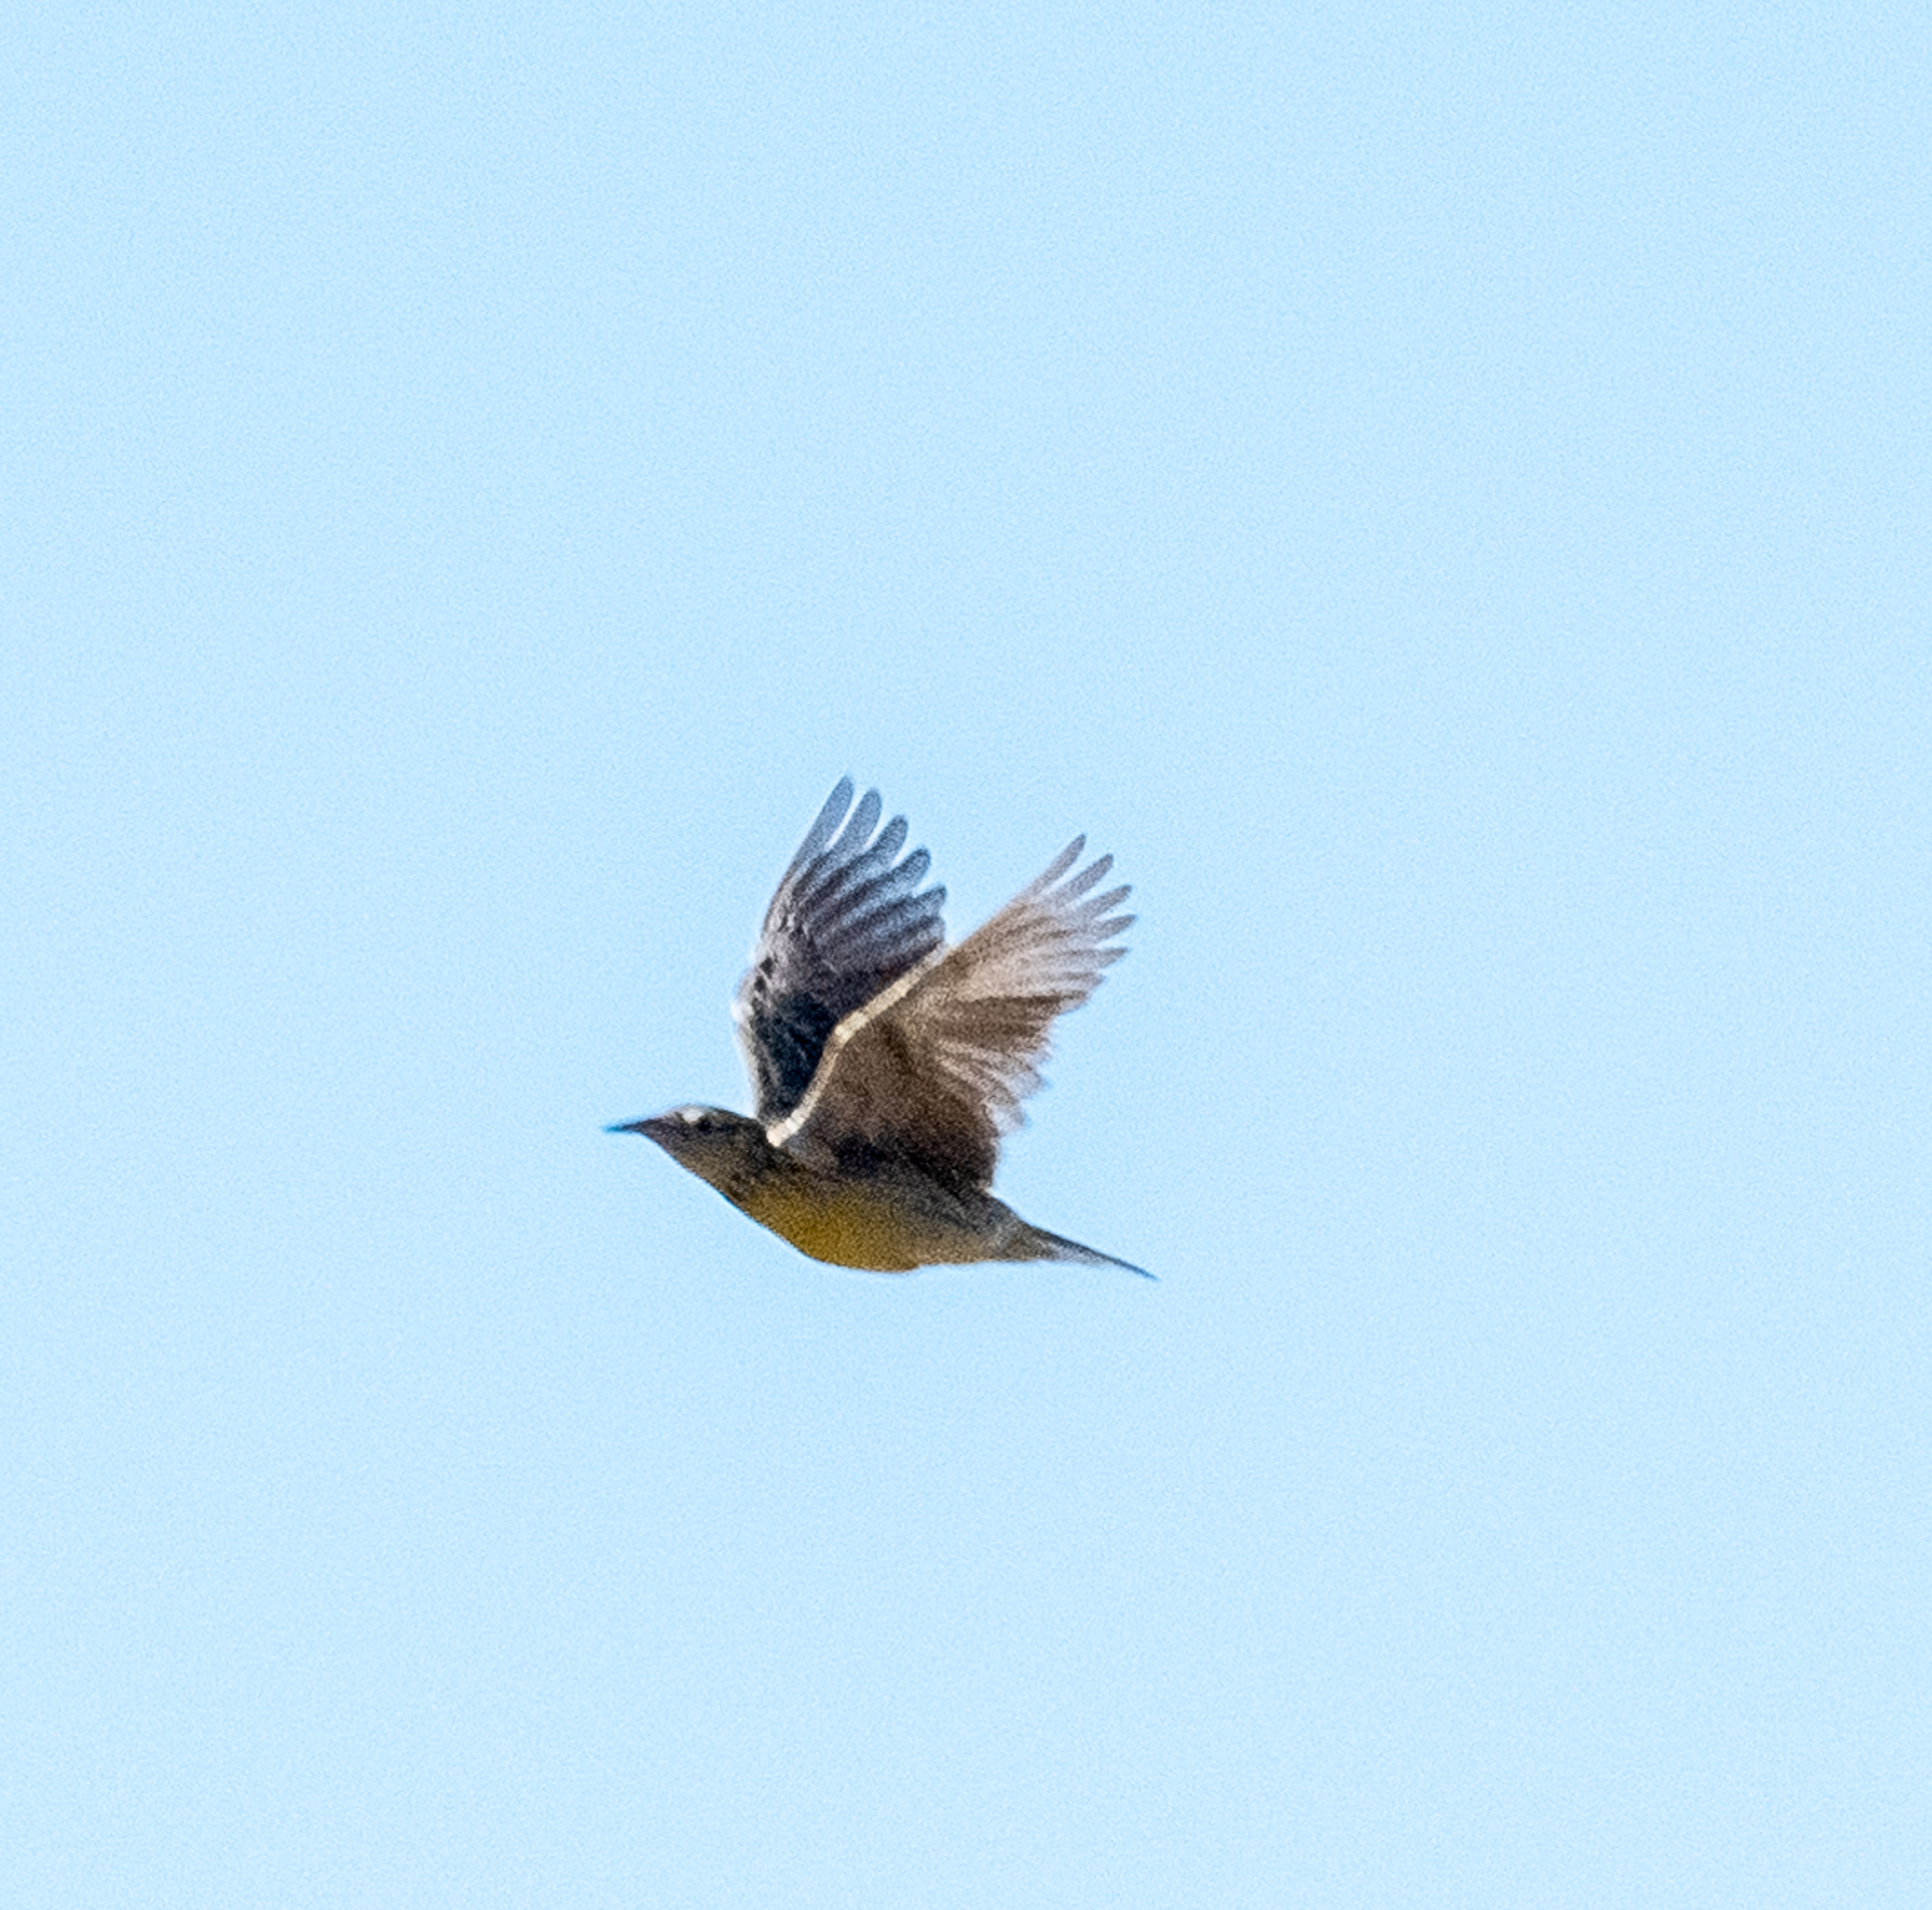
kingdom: Animalia
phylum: Chordata
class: Aves
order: Passeriformes
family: Icteridae
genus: Sturnella
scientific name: Sturnella neglecta
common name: Western meadowlark
